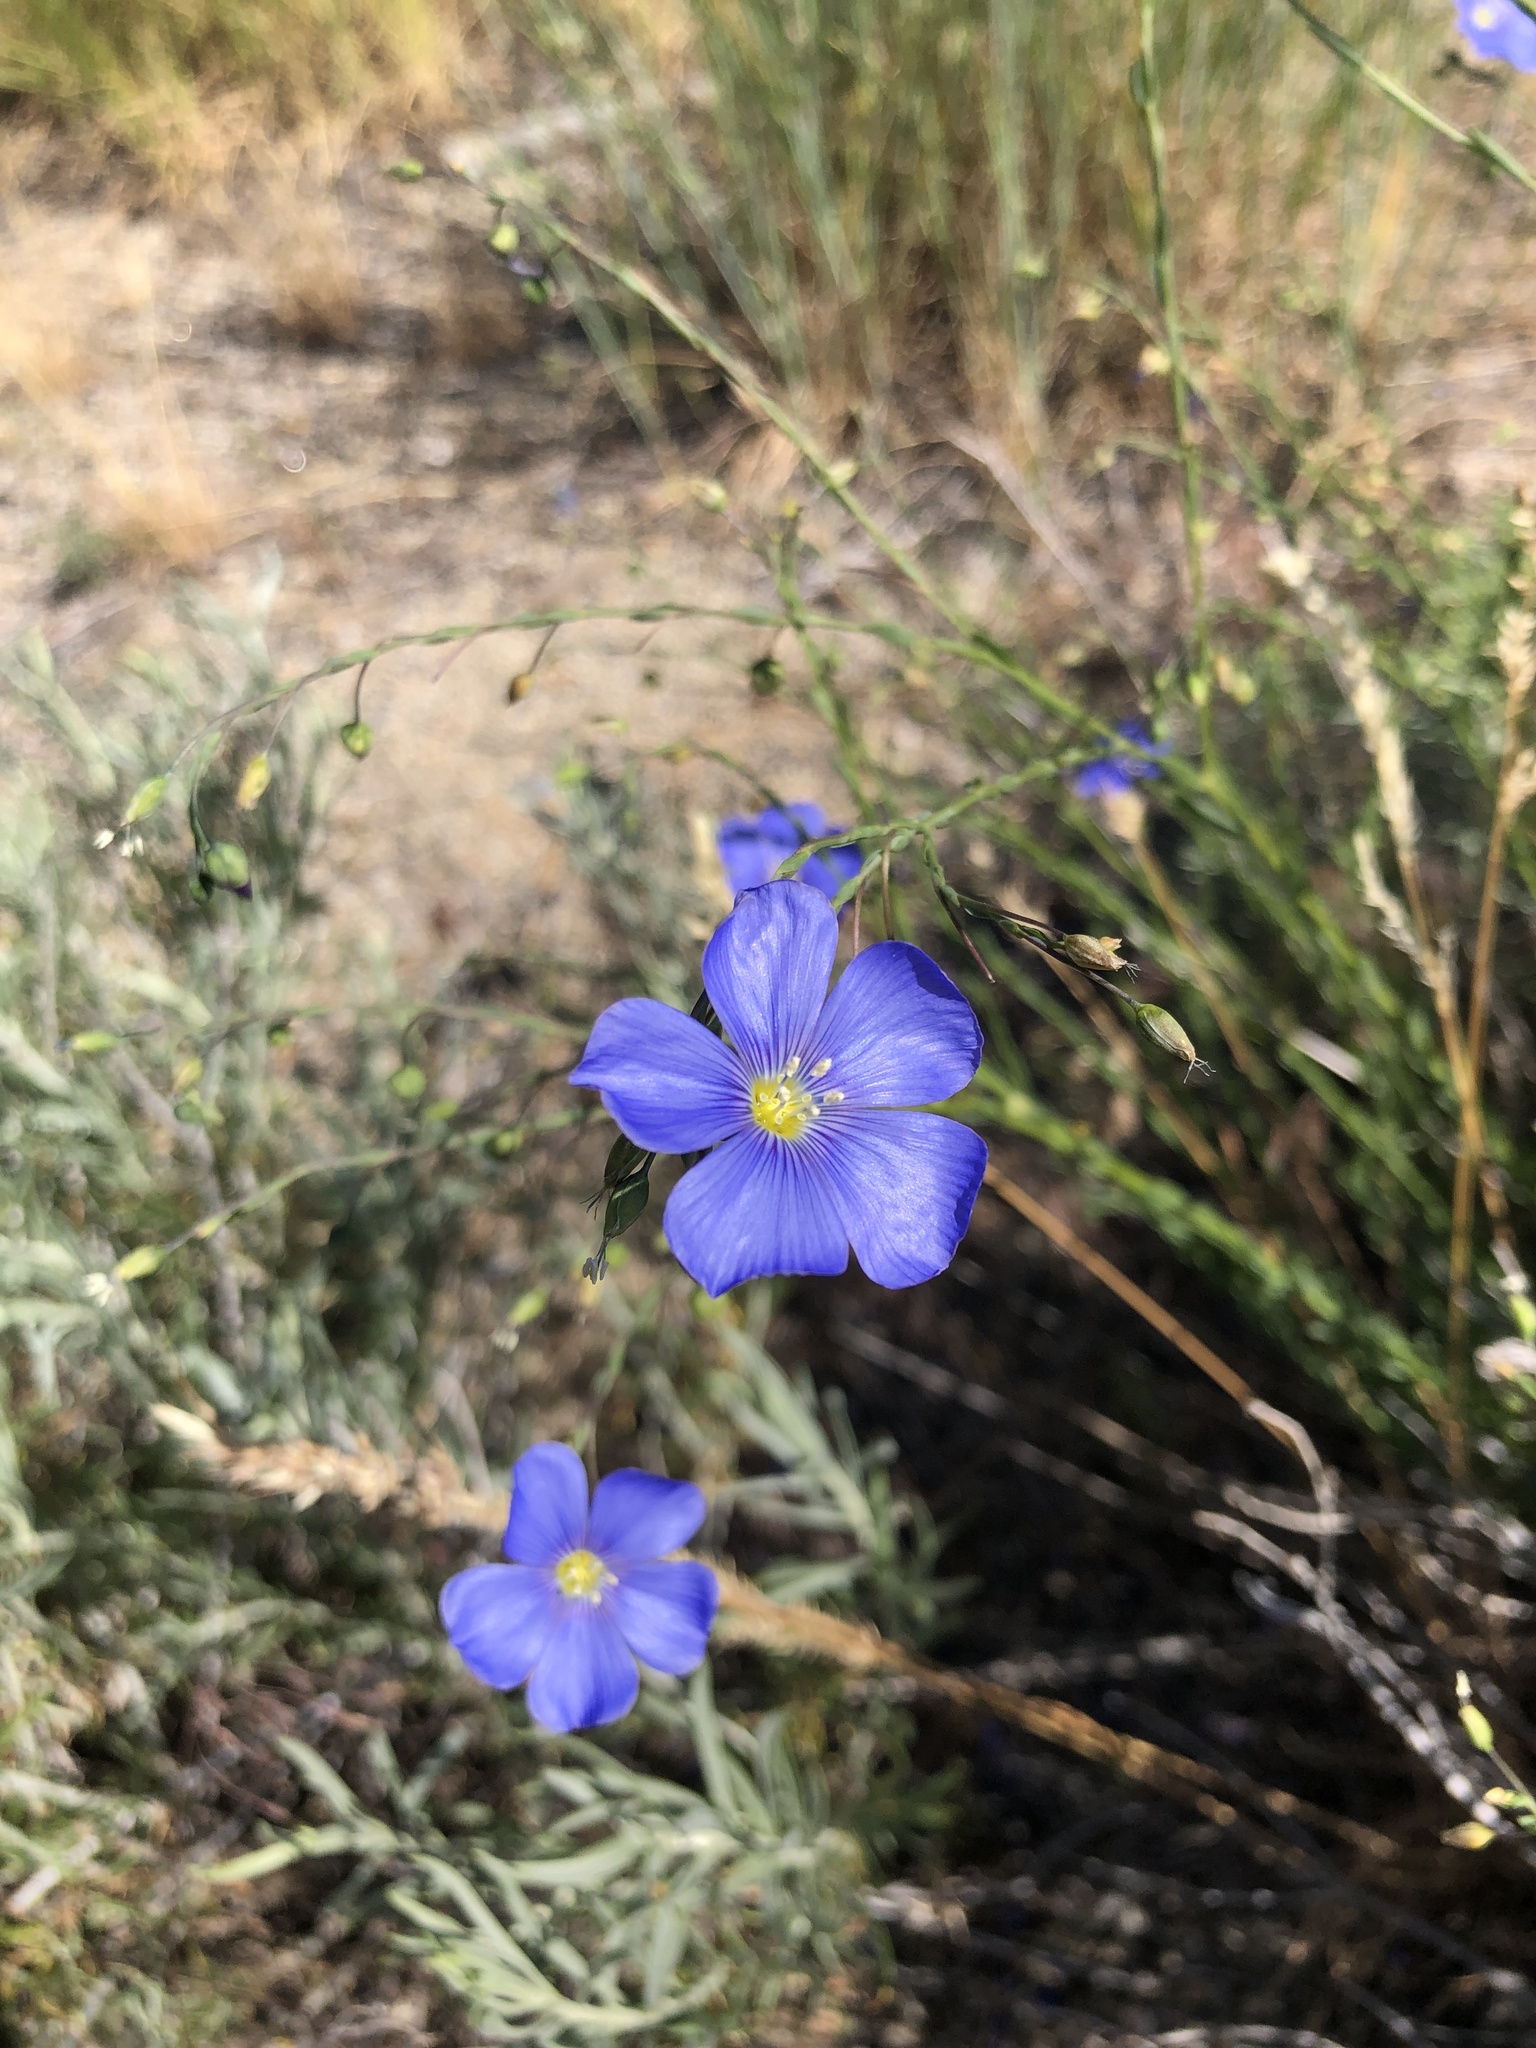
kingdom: Plantae
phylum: Tracheophyta
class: Magnoliopsida
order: Malpighiales
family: Linaceae
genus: Linum
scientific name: Linum lewisii
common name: Prairie flax
